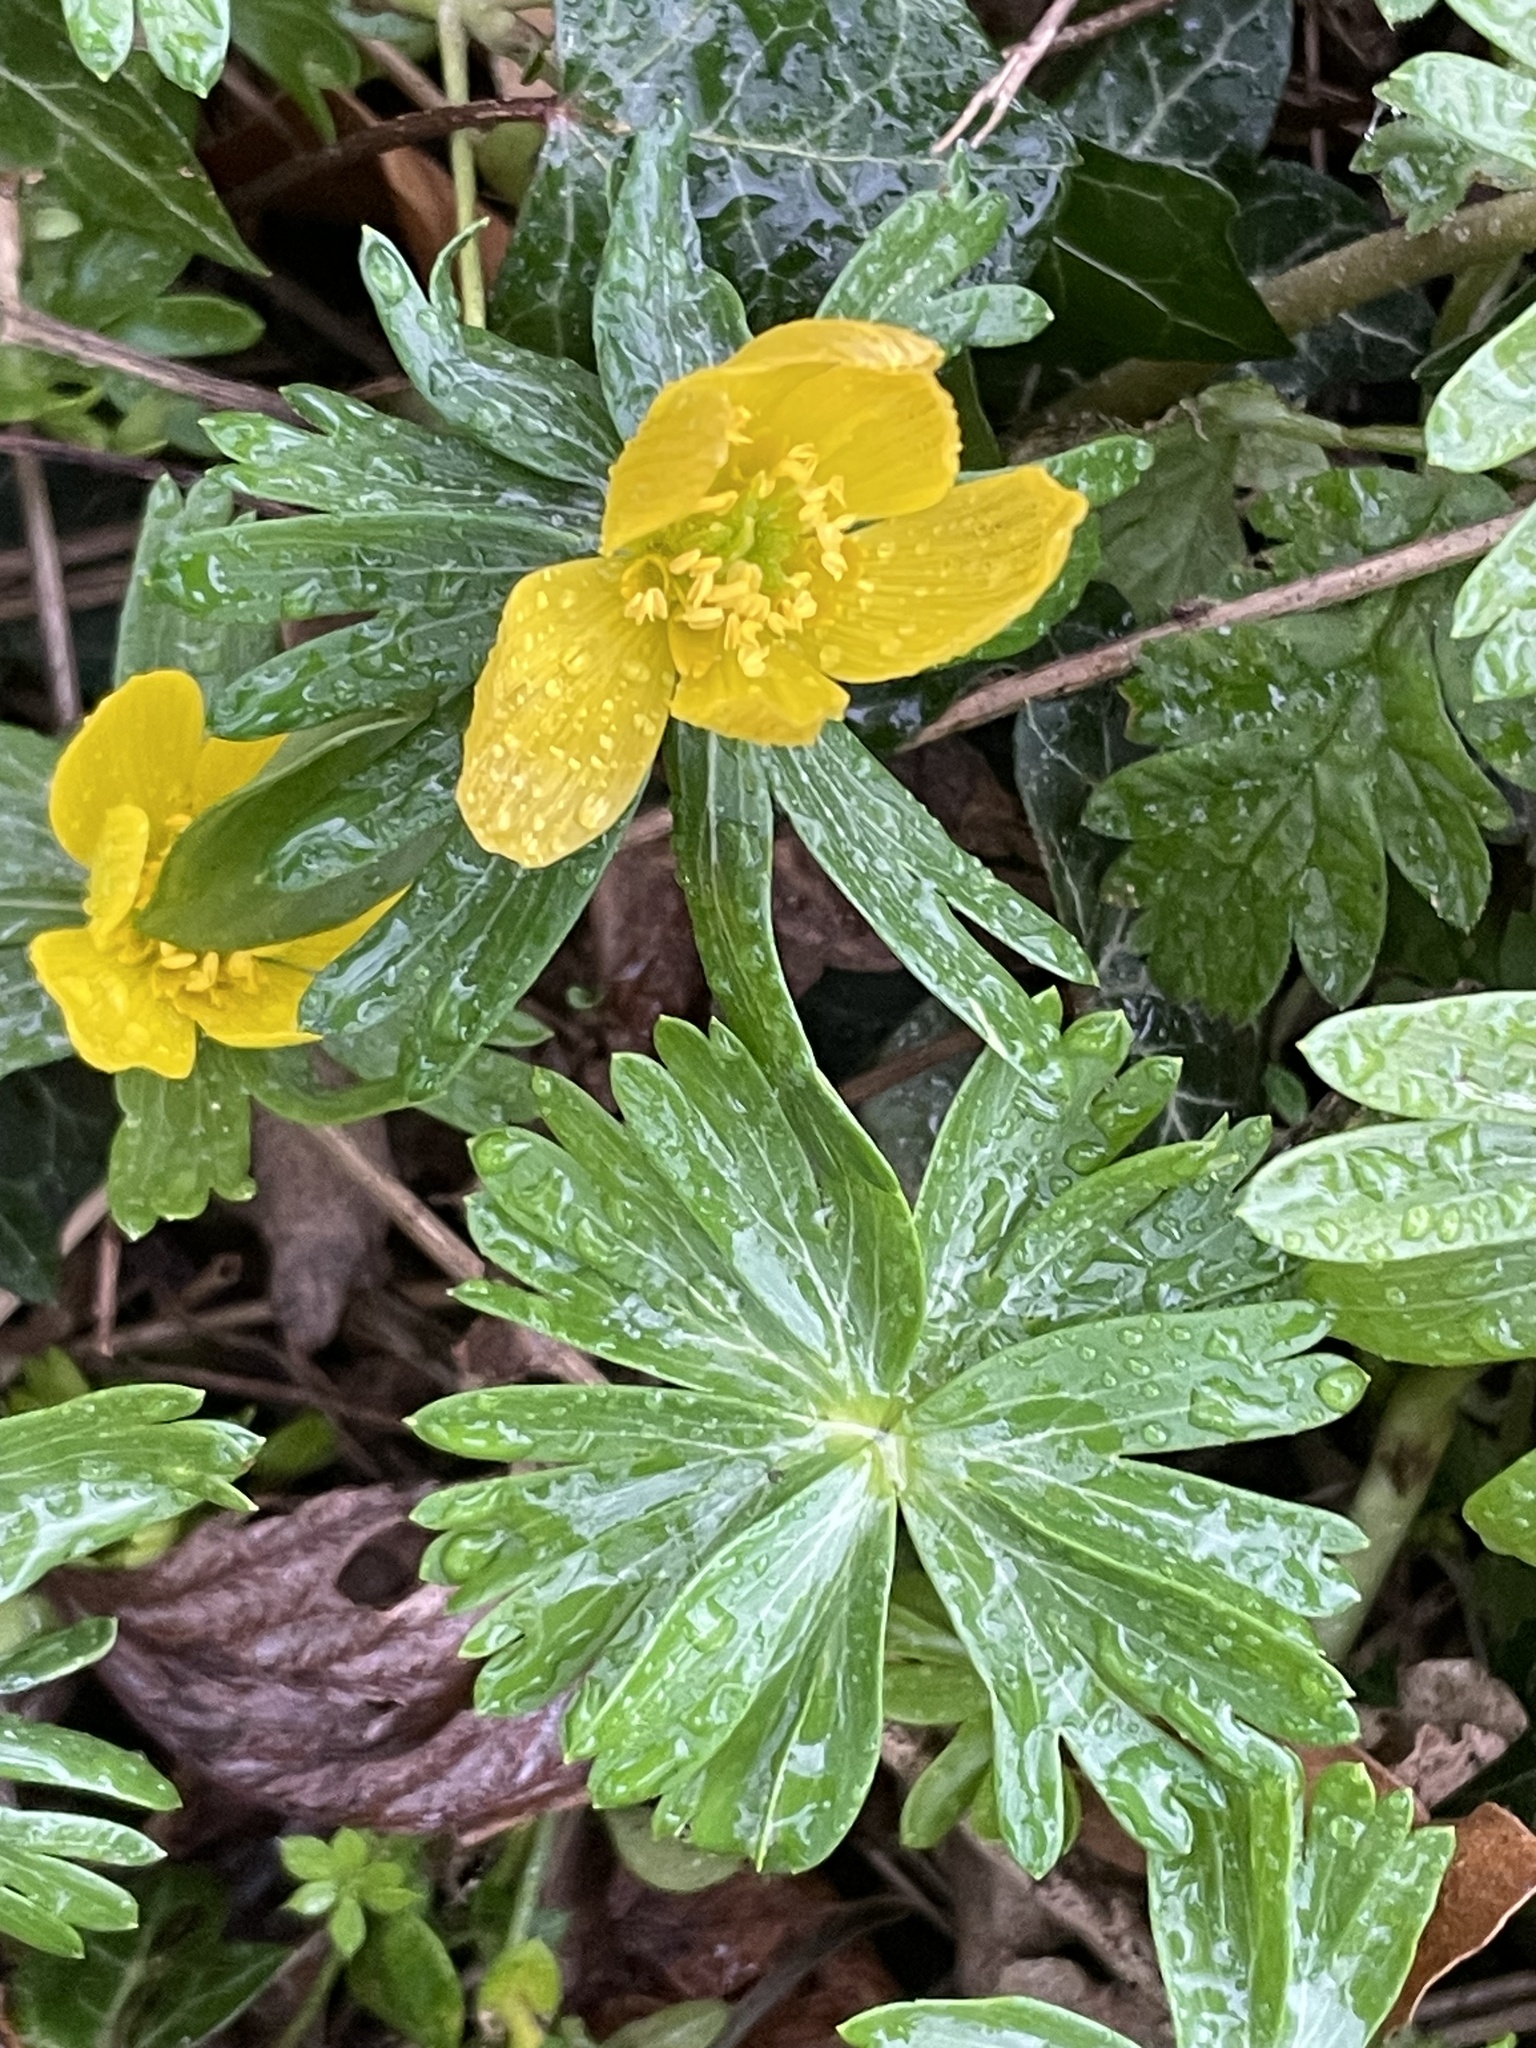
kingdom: Plantae
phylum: Tracheophyta
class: Magnoliopsida
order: Ranunculales
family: Ranunculaceae
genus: Eranthis
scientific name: Eranthis hyemalis
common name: Winter aconite
